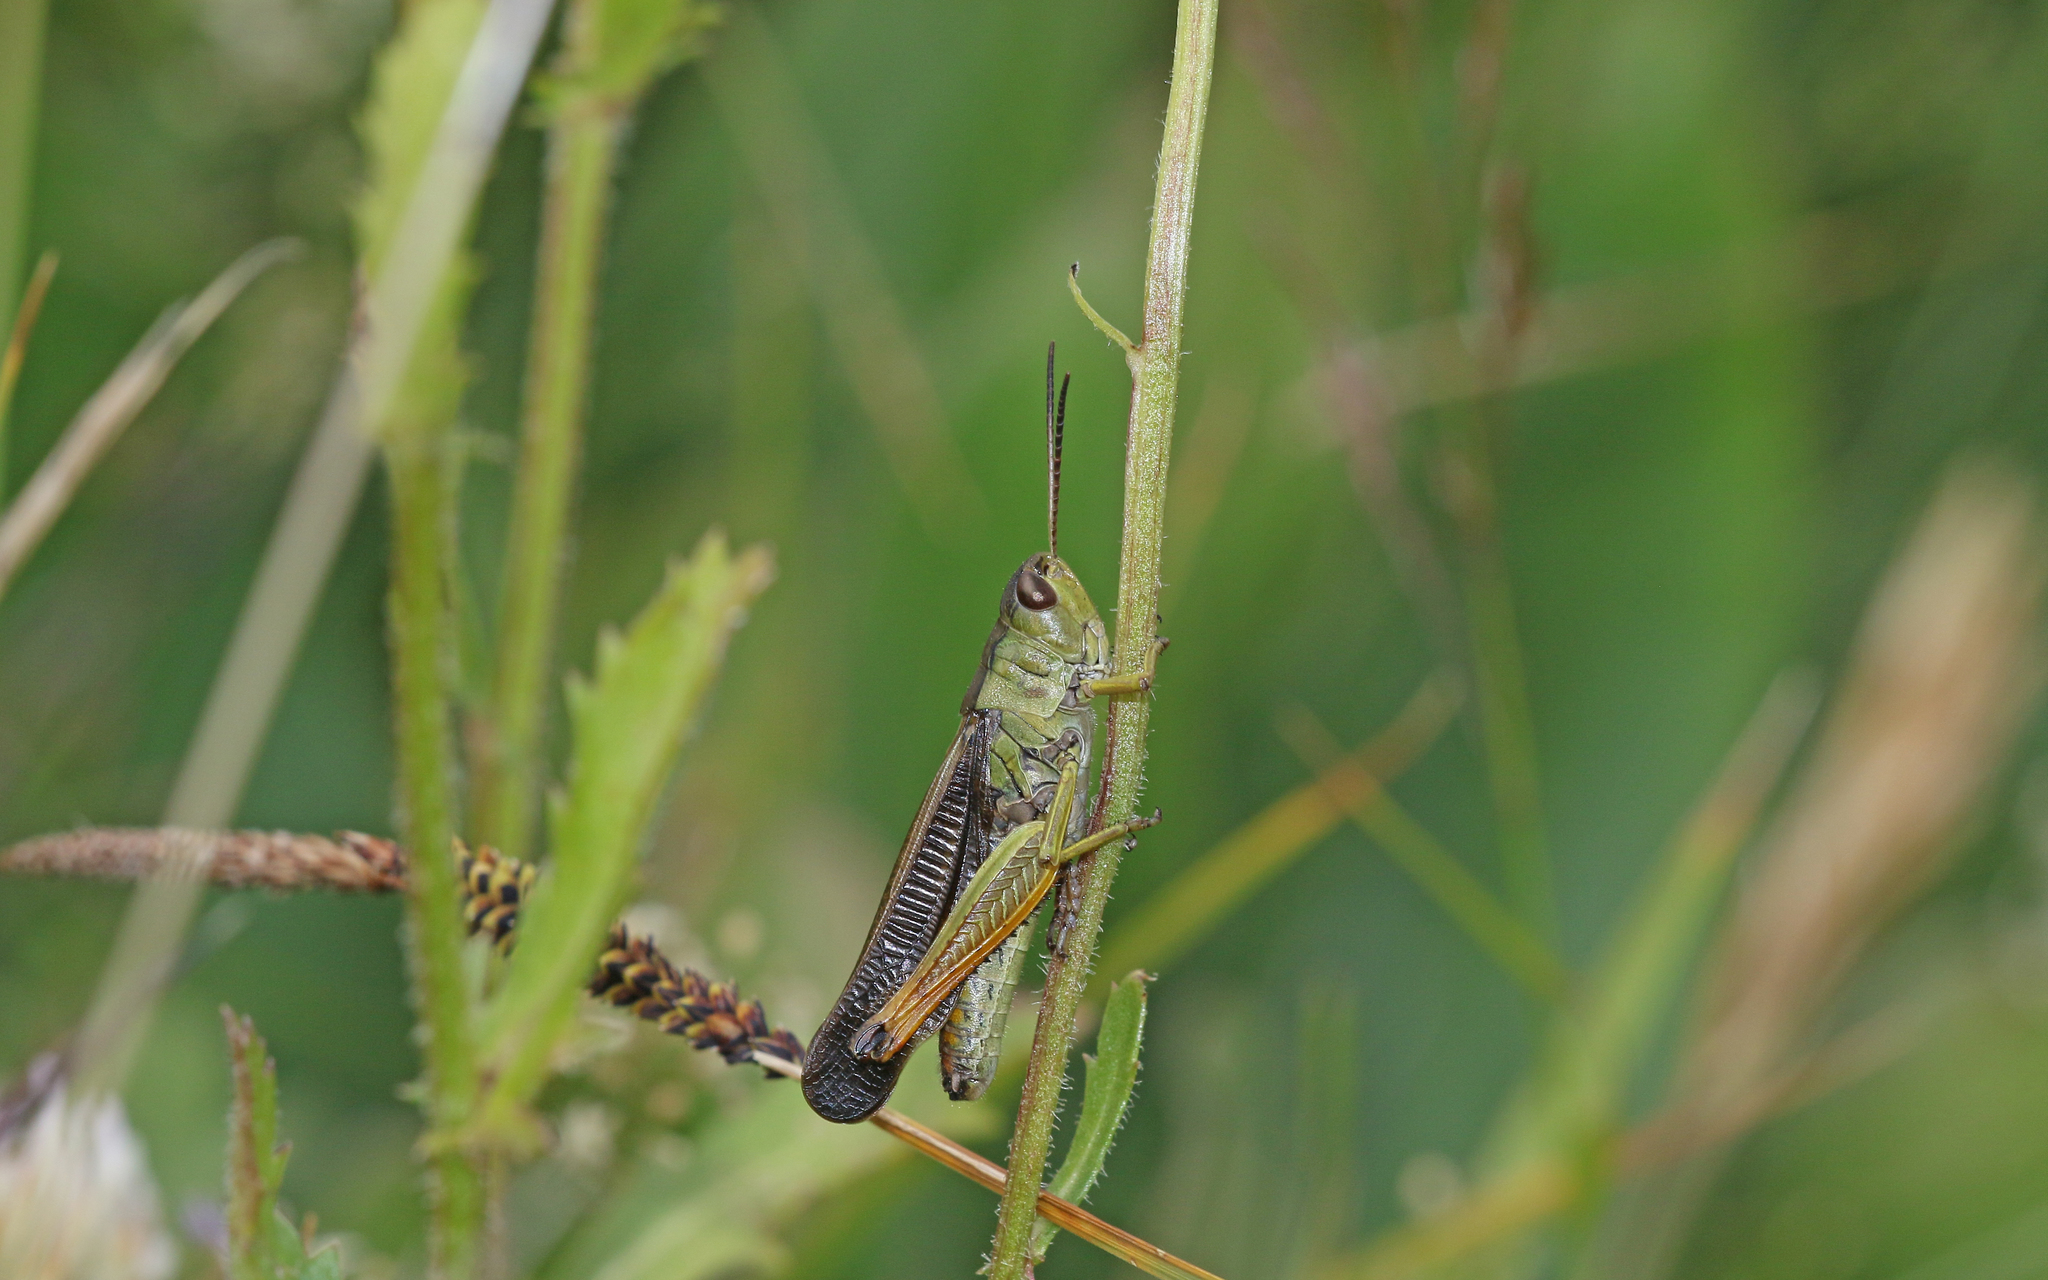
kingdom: Animalia
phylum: Arthropoda
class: Insecta
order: Orthoptera
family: Acrididae
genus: Stauroderus
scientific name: Stauroderus scalaris
